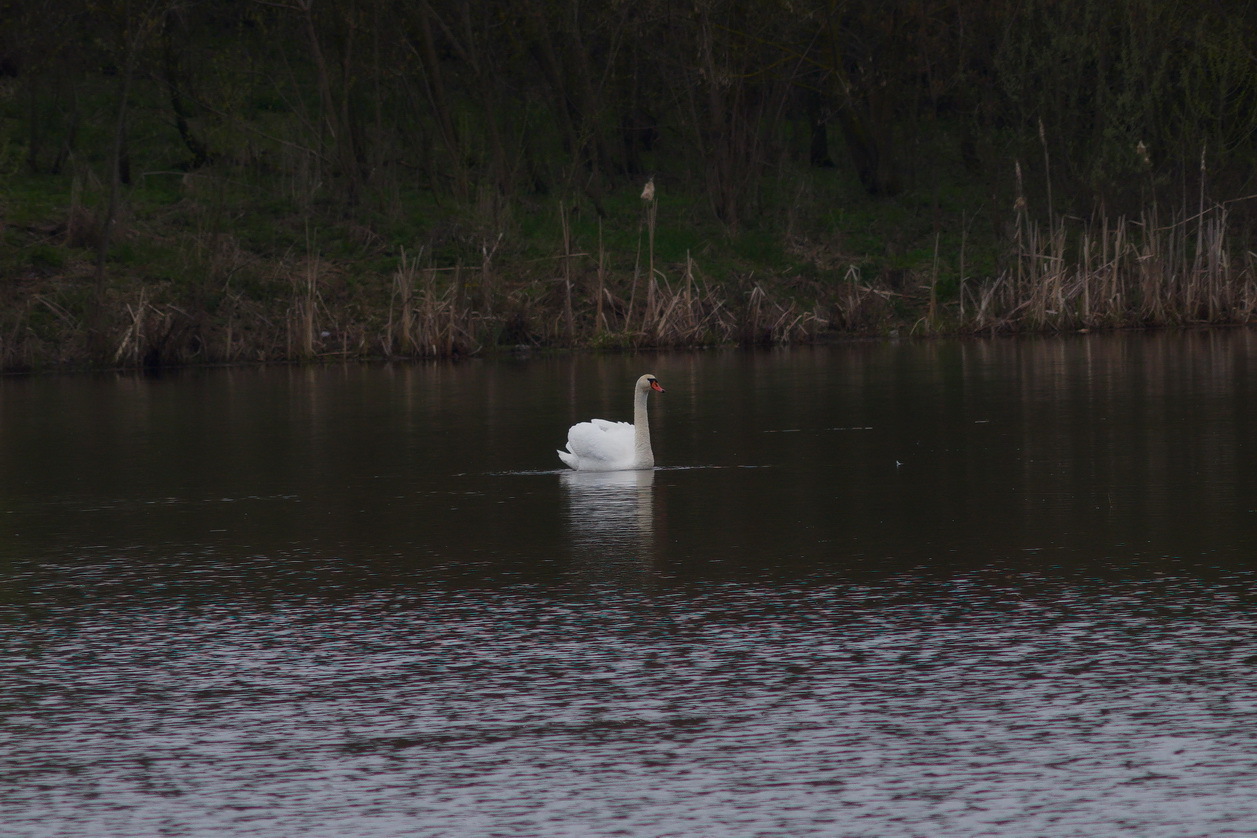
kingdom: Animalia
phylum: Chordata
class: Aves
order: Anseriformes
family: Anatidae
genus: Cygnus
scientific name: Cygnus olor
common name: Mute swan
